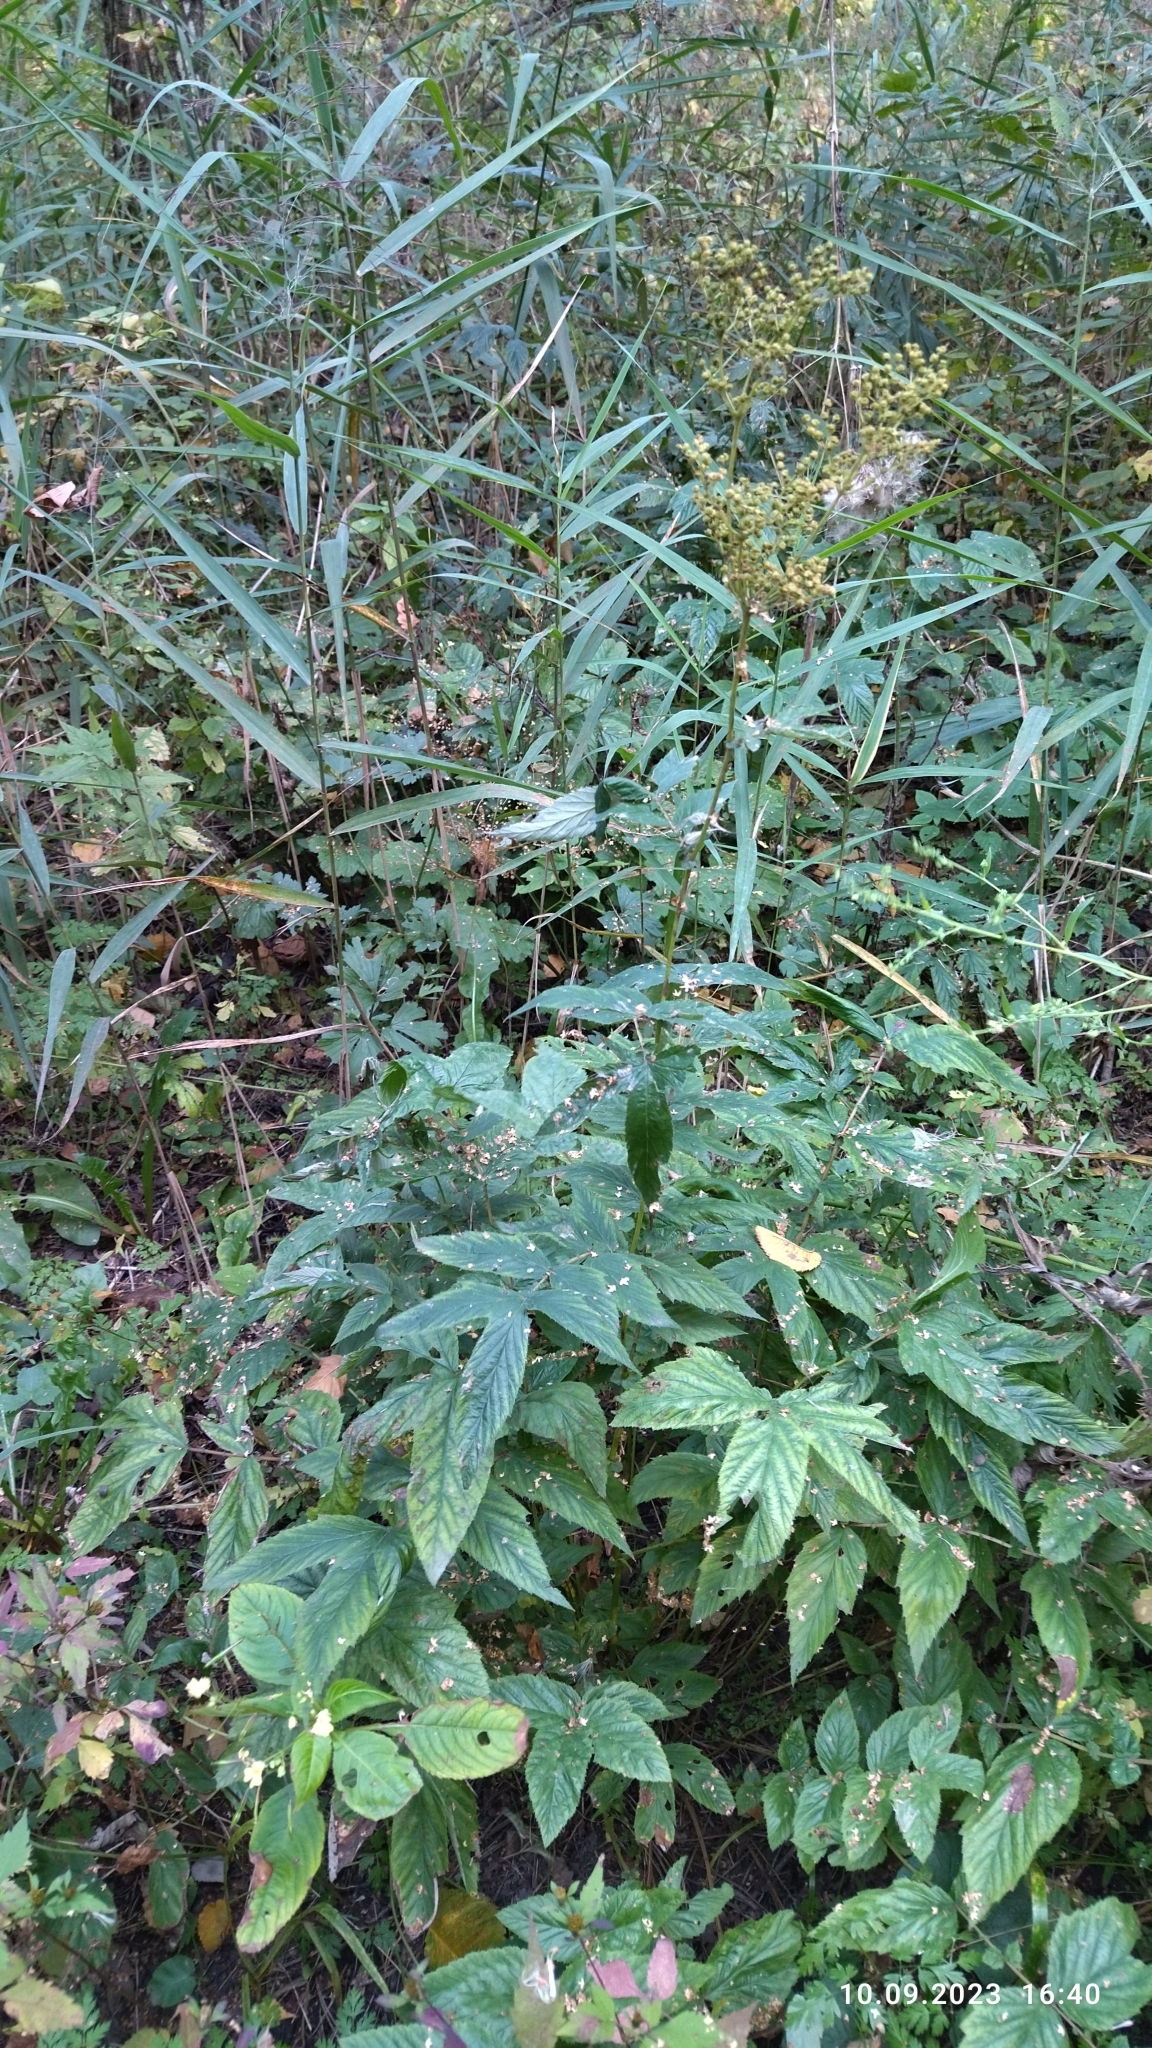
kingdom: Plantae
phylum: Tracheophyta
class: Magnoliopsida
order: Rosales
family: Rosaceae
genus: Filipendula
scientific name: Filipendula ulmaria
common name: Meadowsweet
